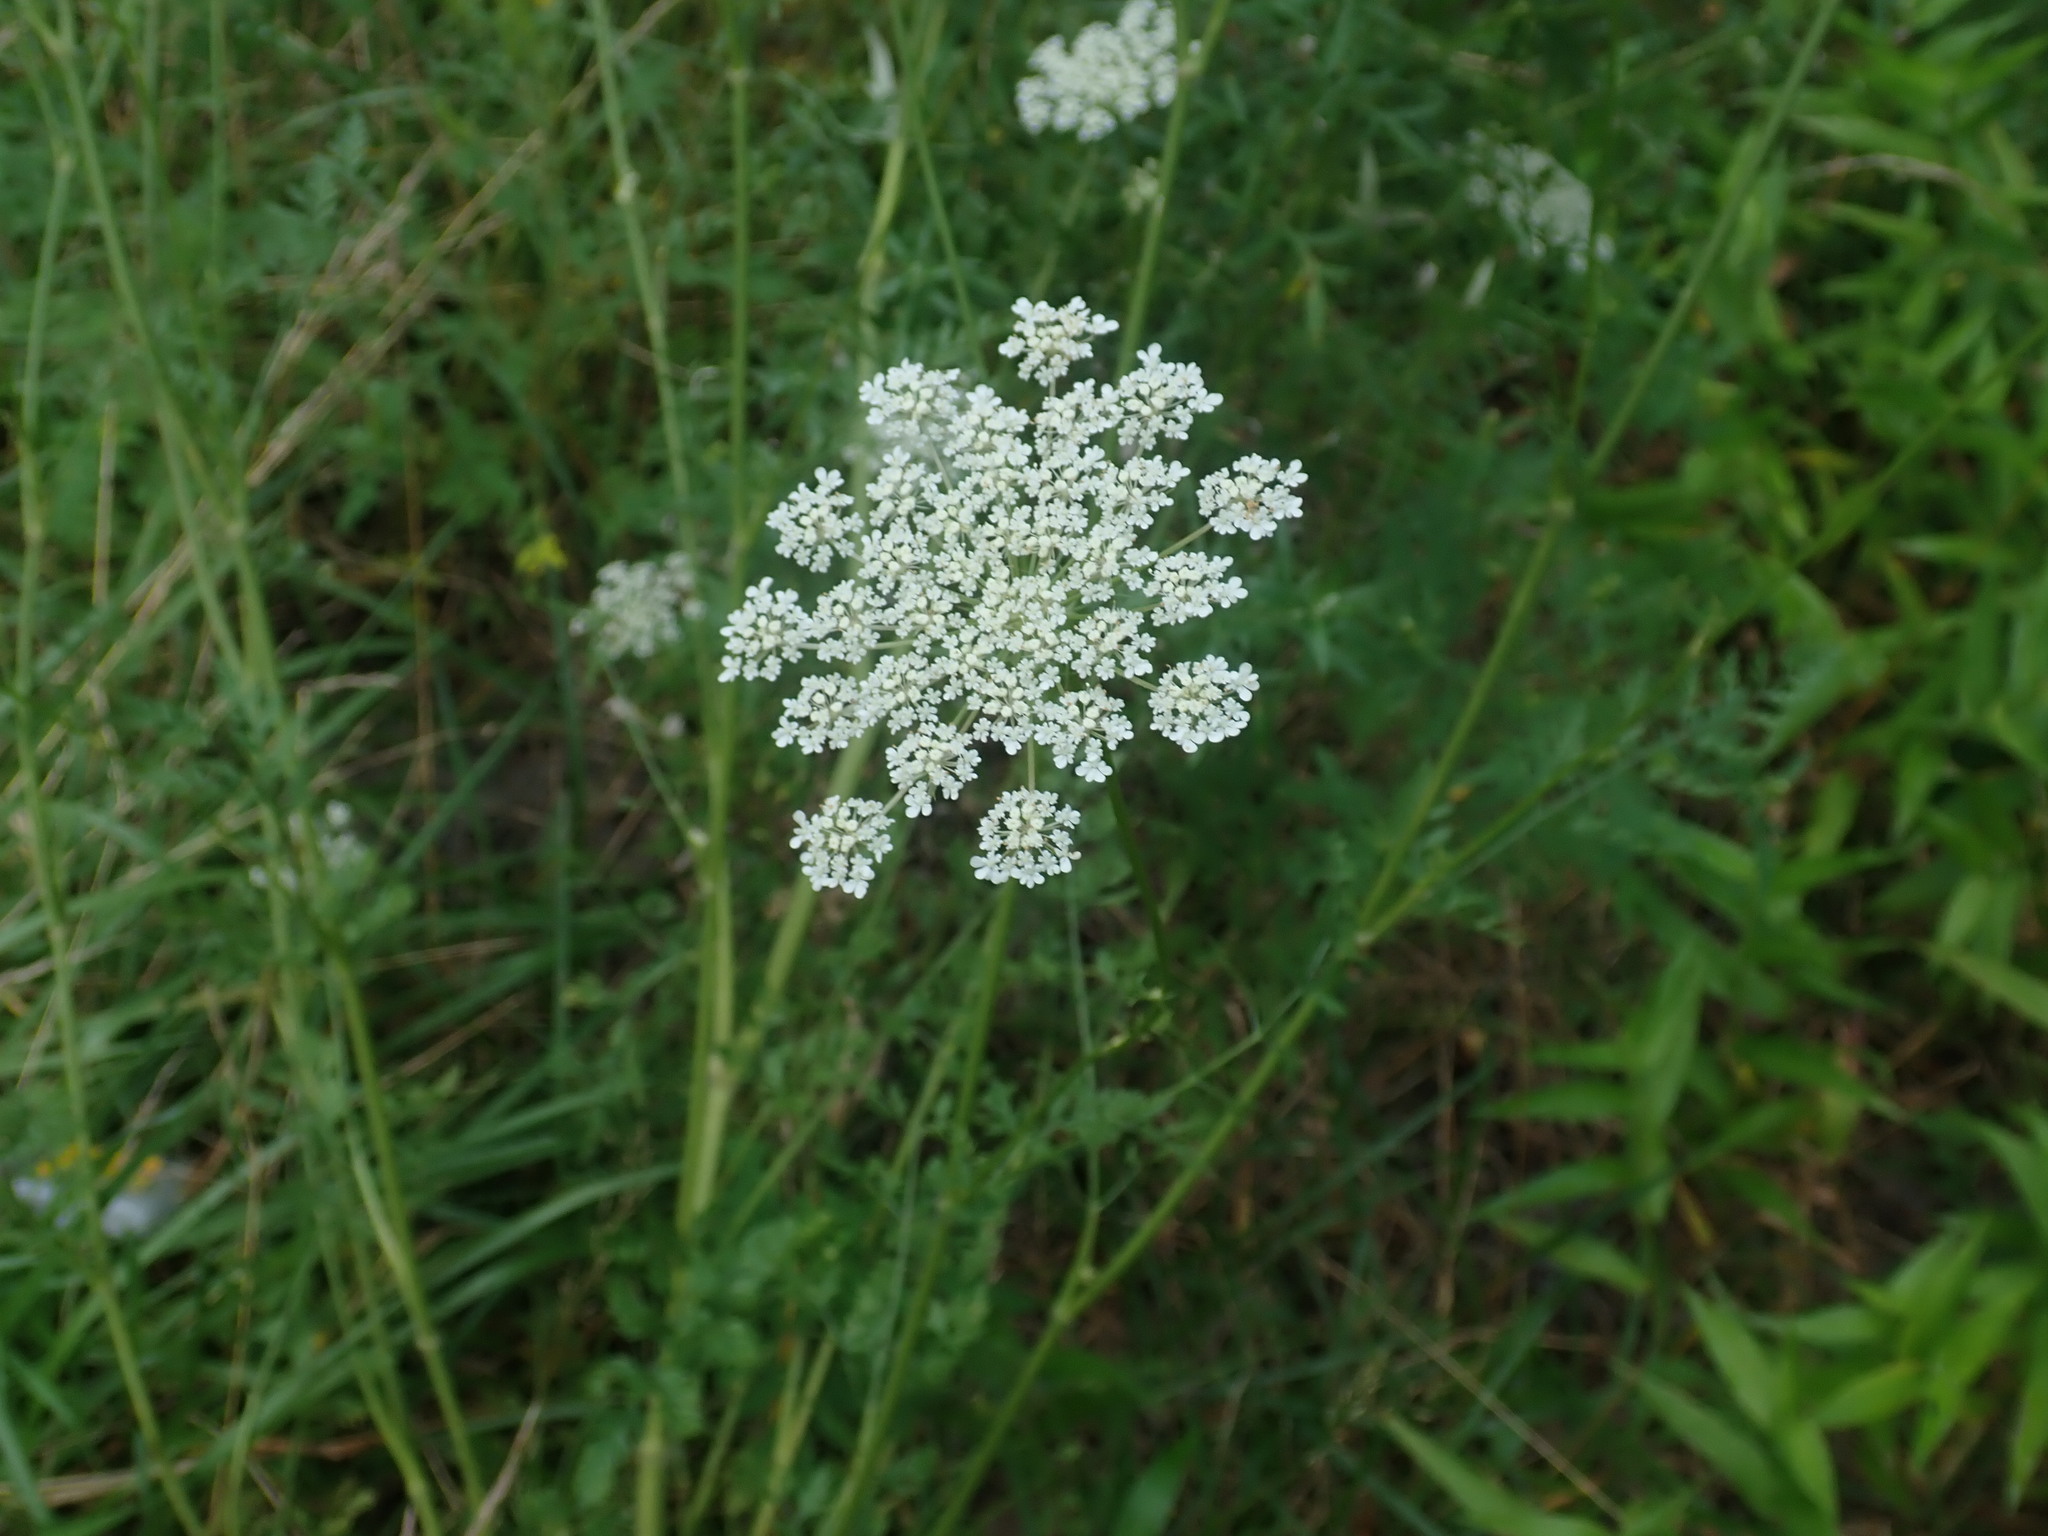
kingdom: Plantae
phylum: Tracheophyta
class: Magnoliopsida
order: Apiales
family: Apiaceae
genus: Daucus
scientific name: Daucus carota
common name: Wild carrot
